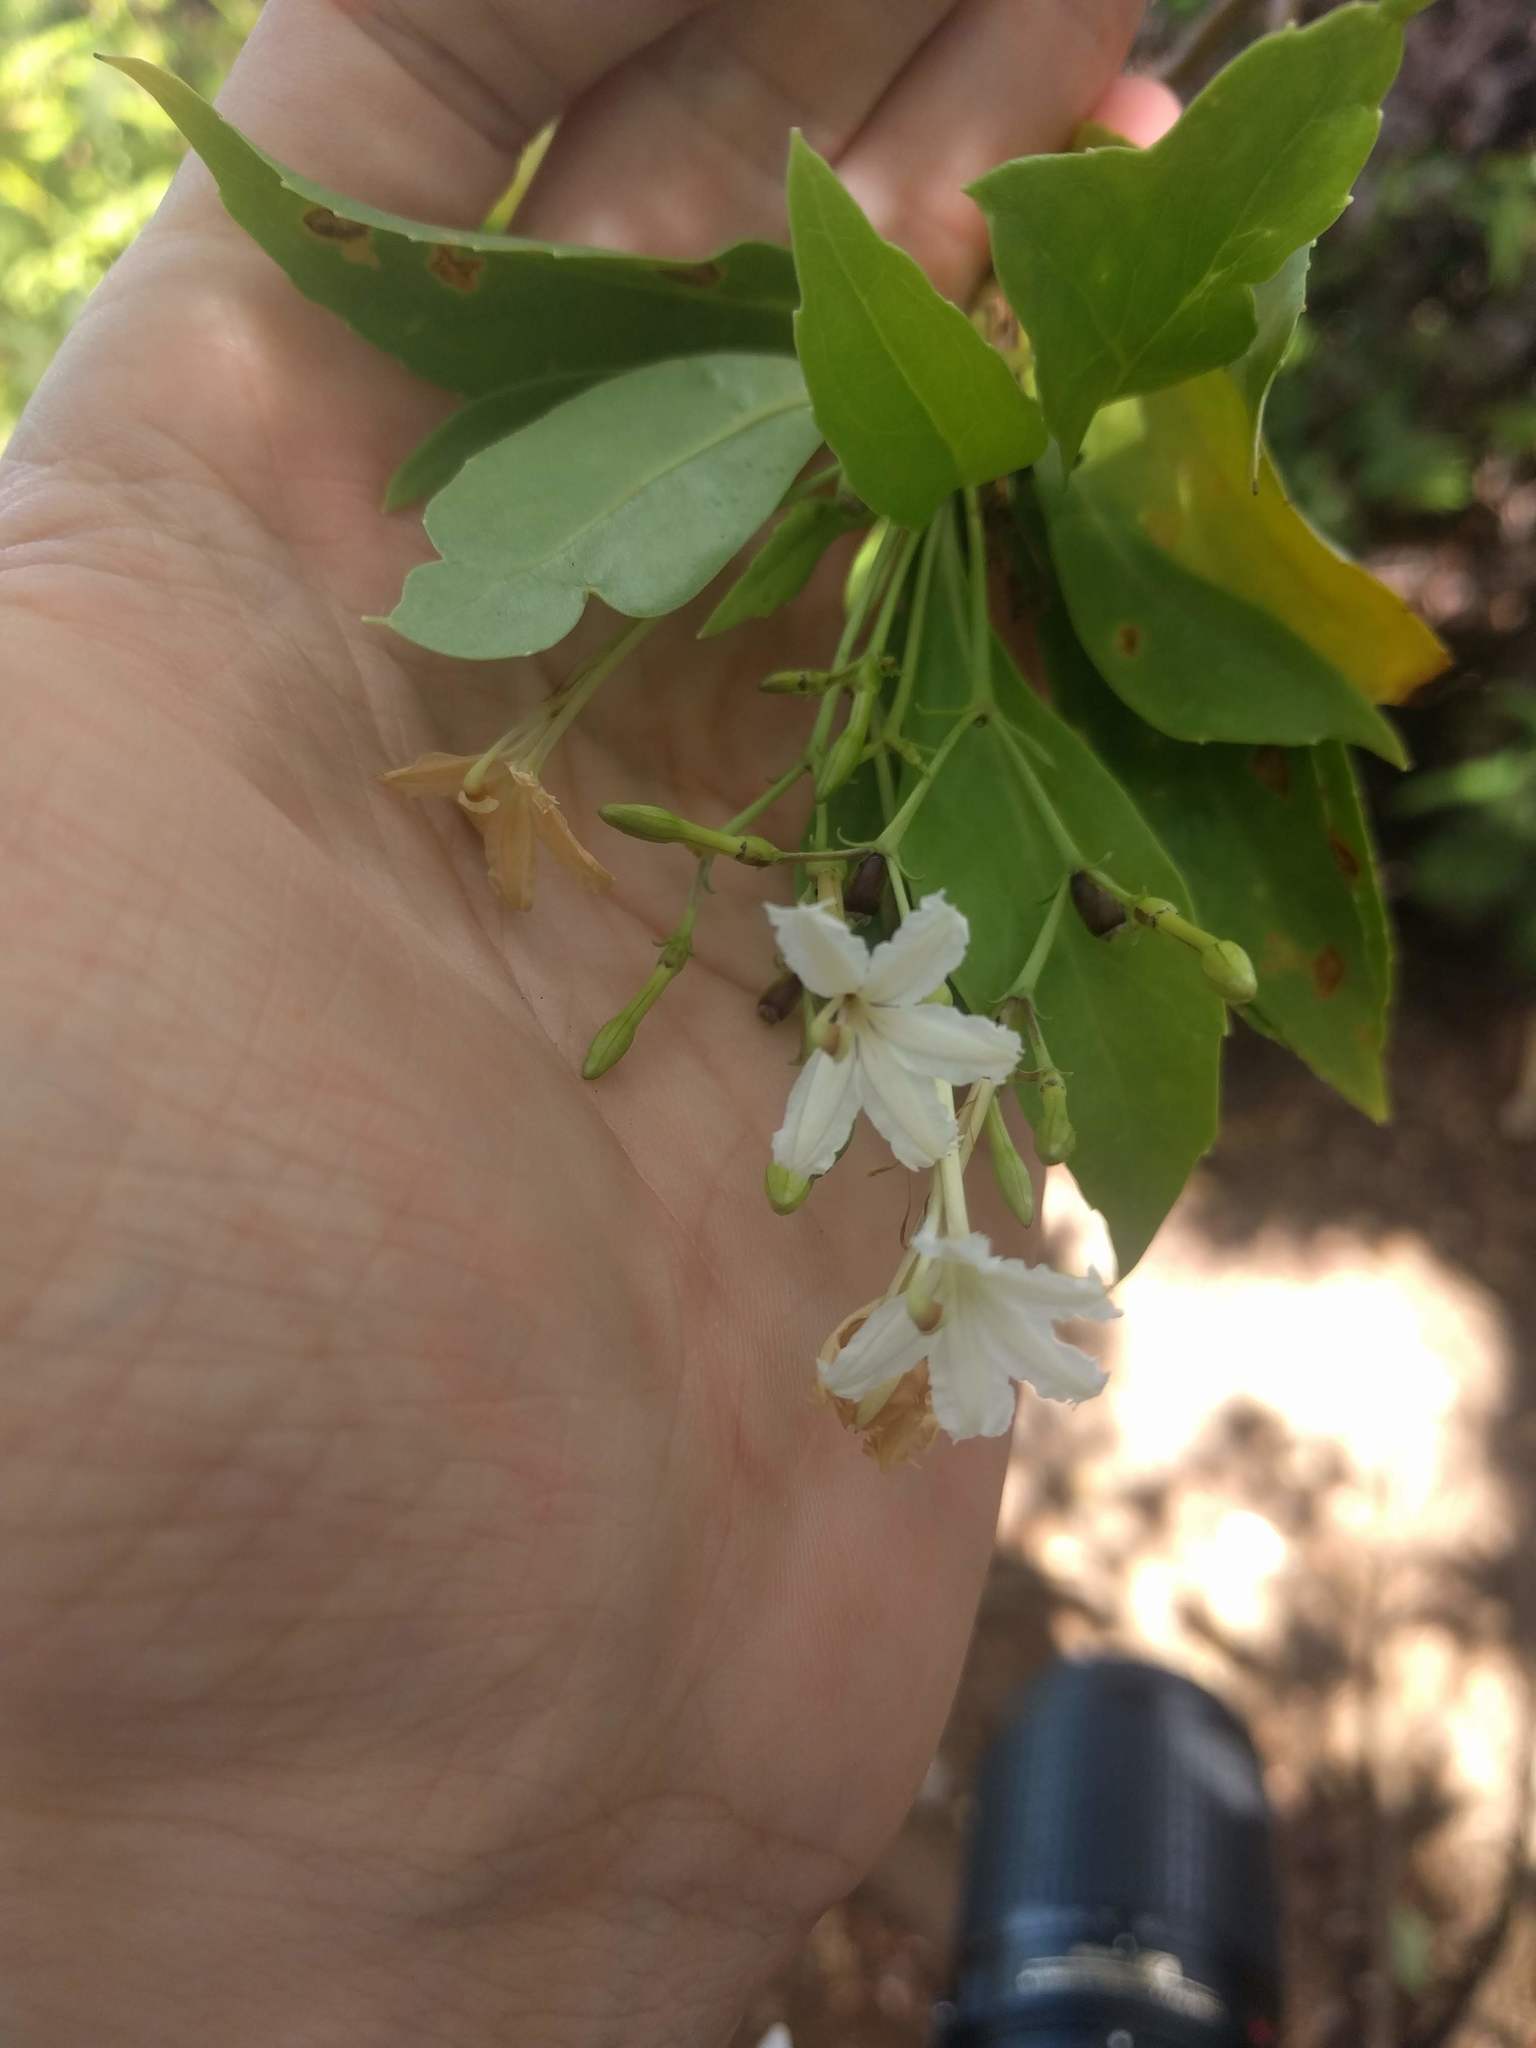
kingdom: Plantae
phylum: Tracheophyta
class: Magnoliopsida
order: Asterales
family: Goodeniaceae
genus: Scaevola
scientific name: Scaevola gaudichaudiana
